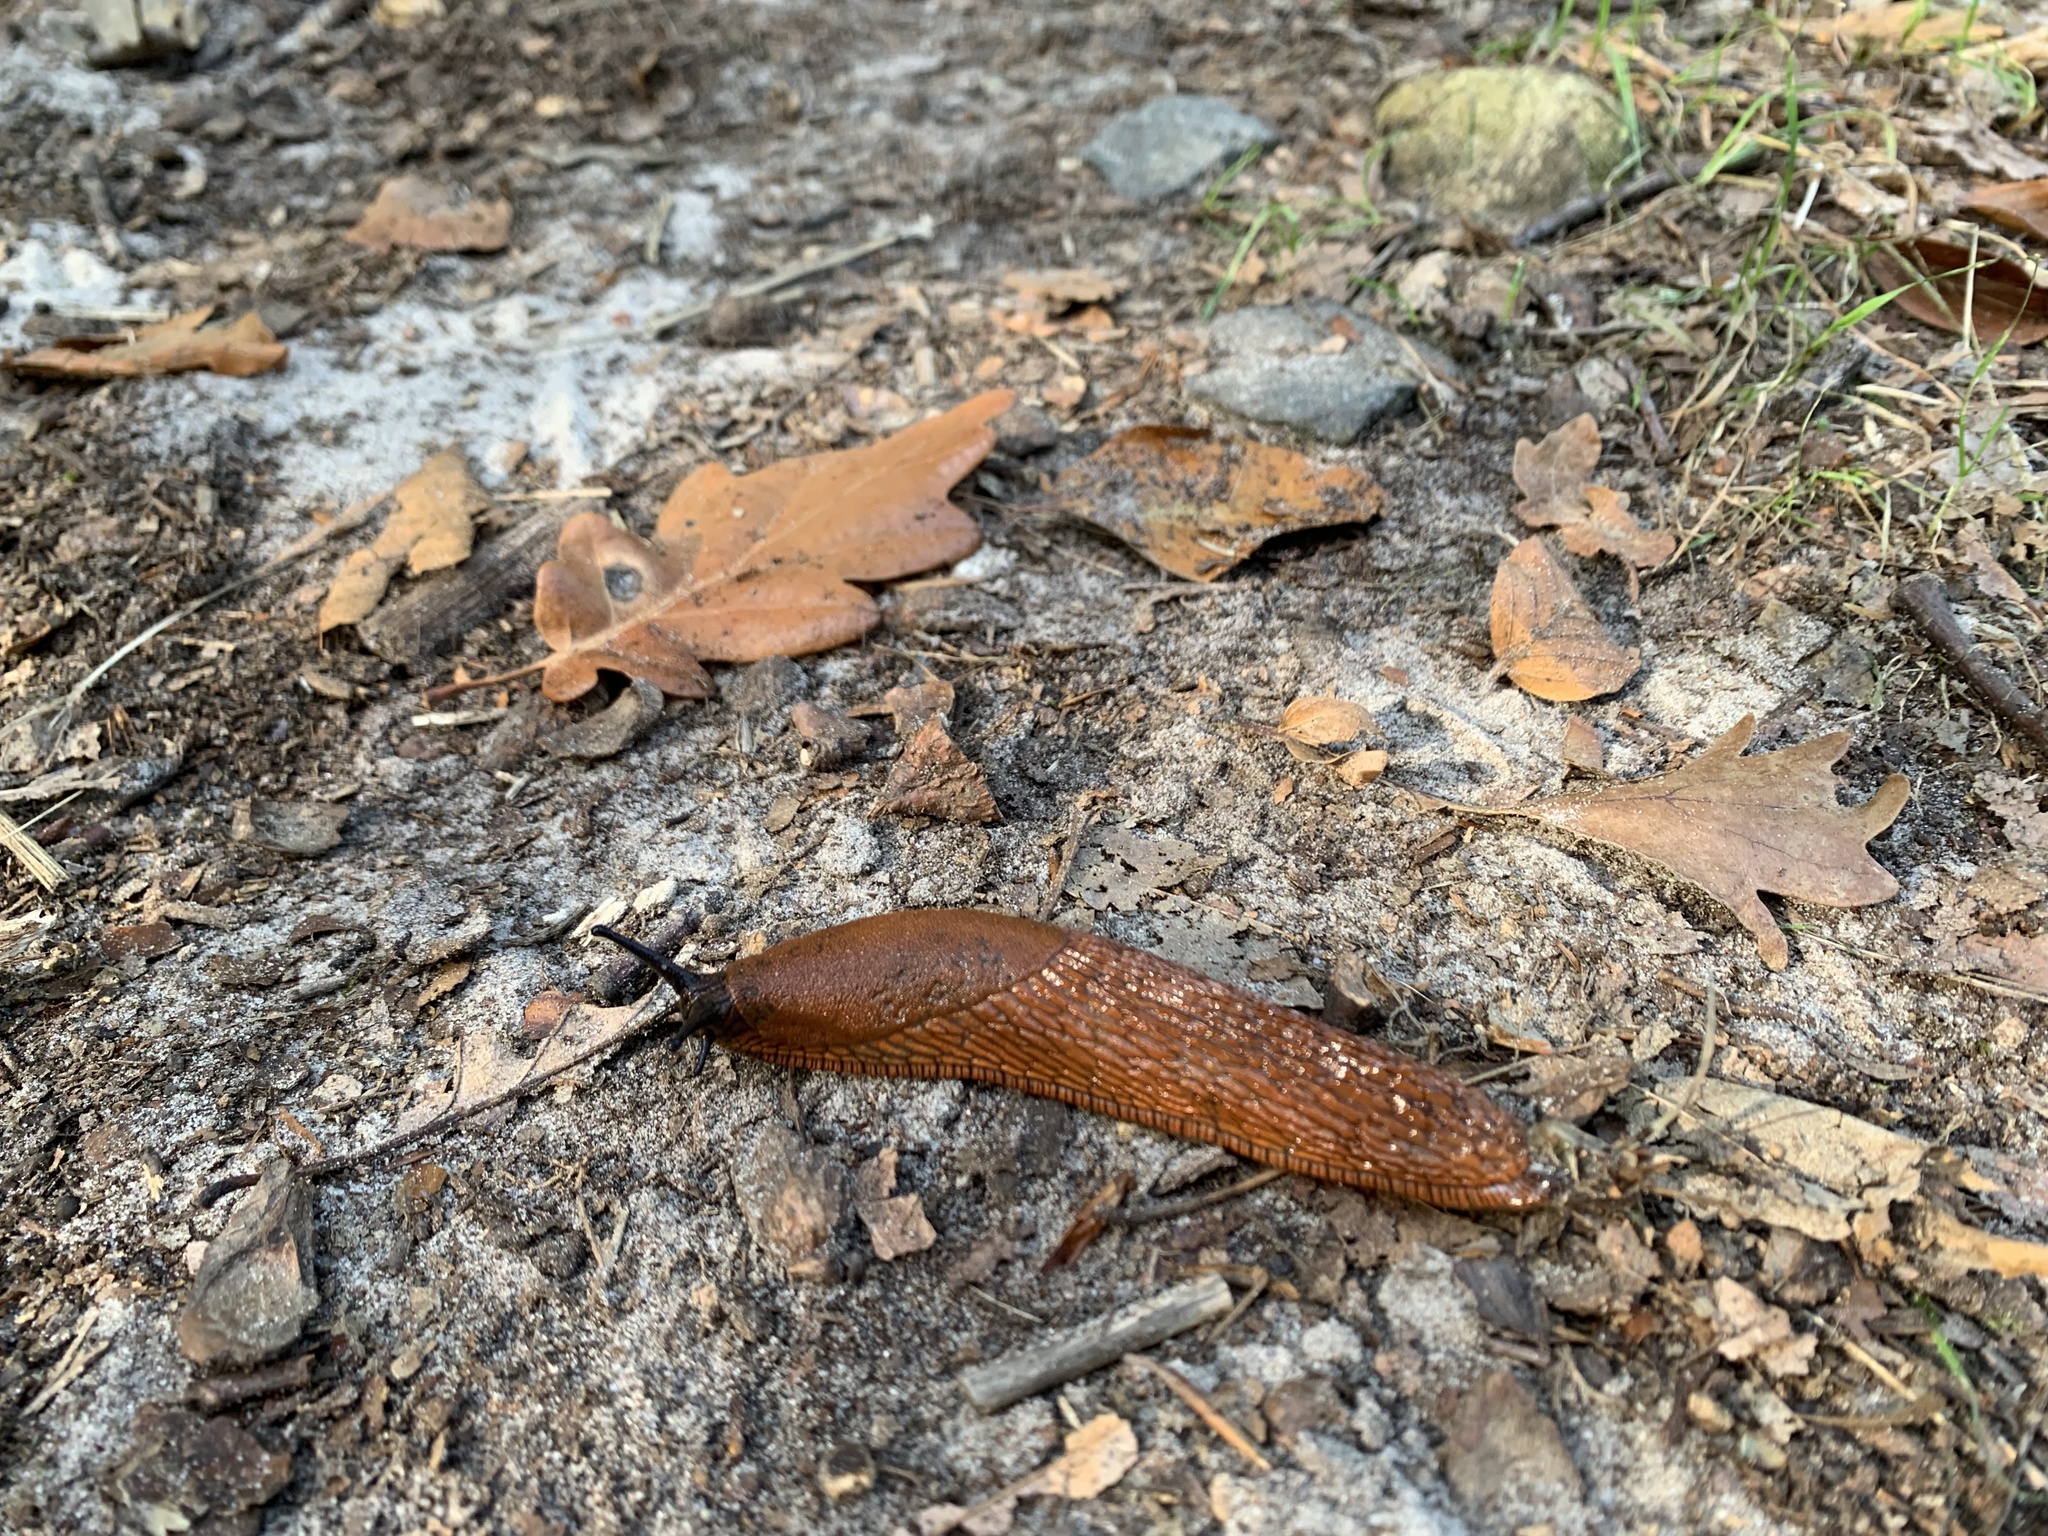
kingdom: Animalia
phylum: Mollusca
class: Gastropoda
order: Stylommatophora
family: Arionidae
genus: Arion
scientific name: Arion vulgaris
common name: Lusitanian slug
